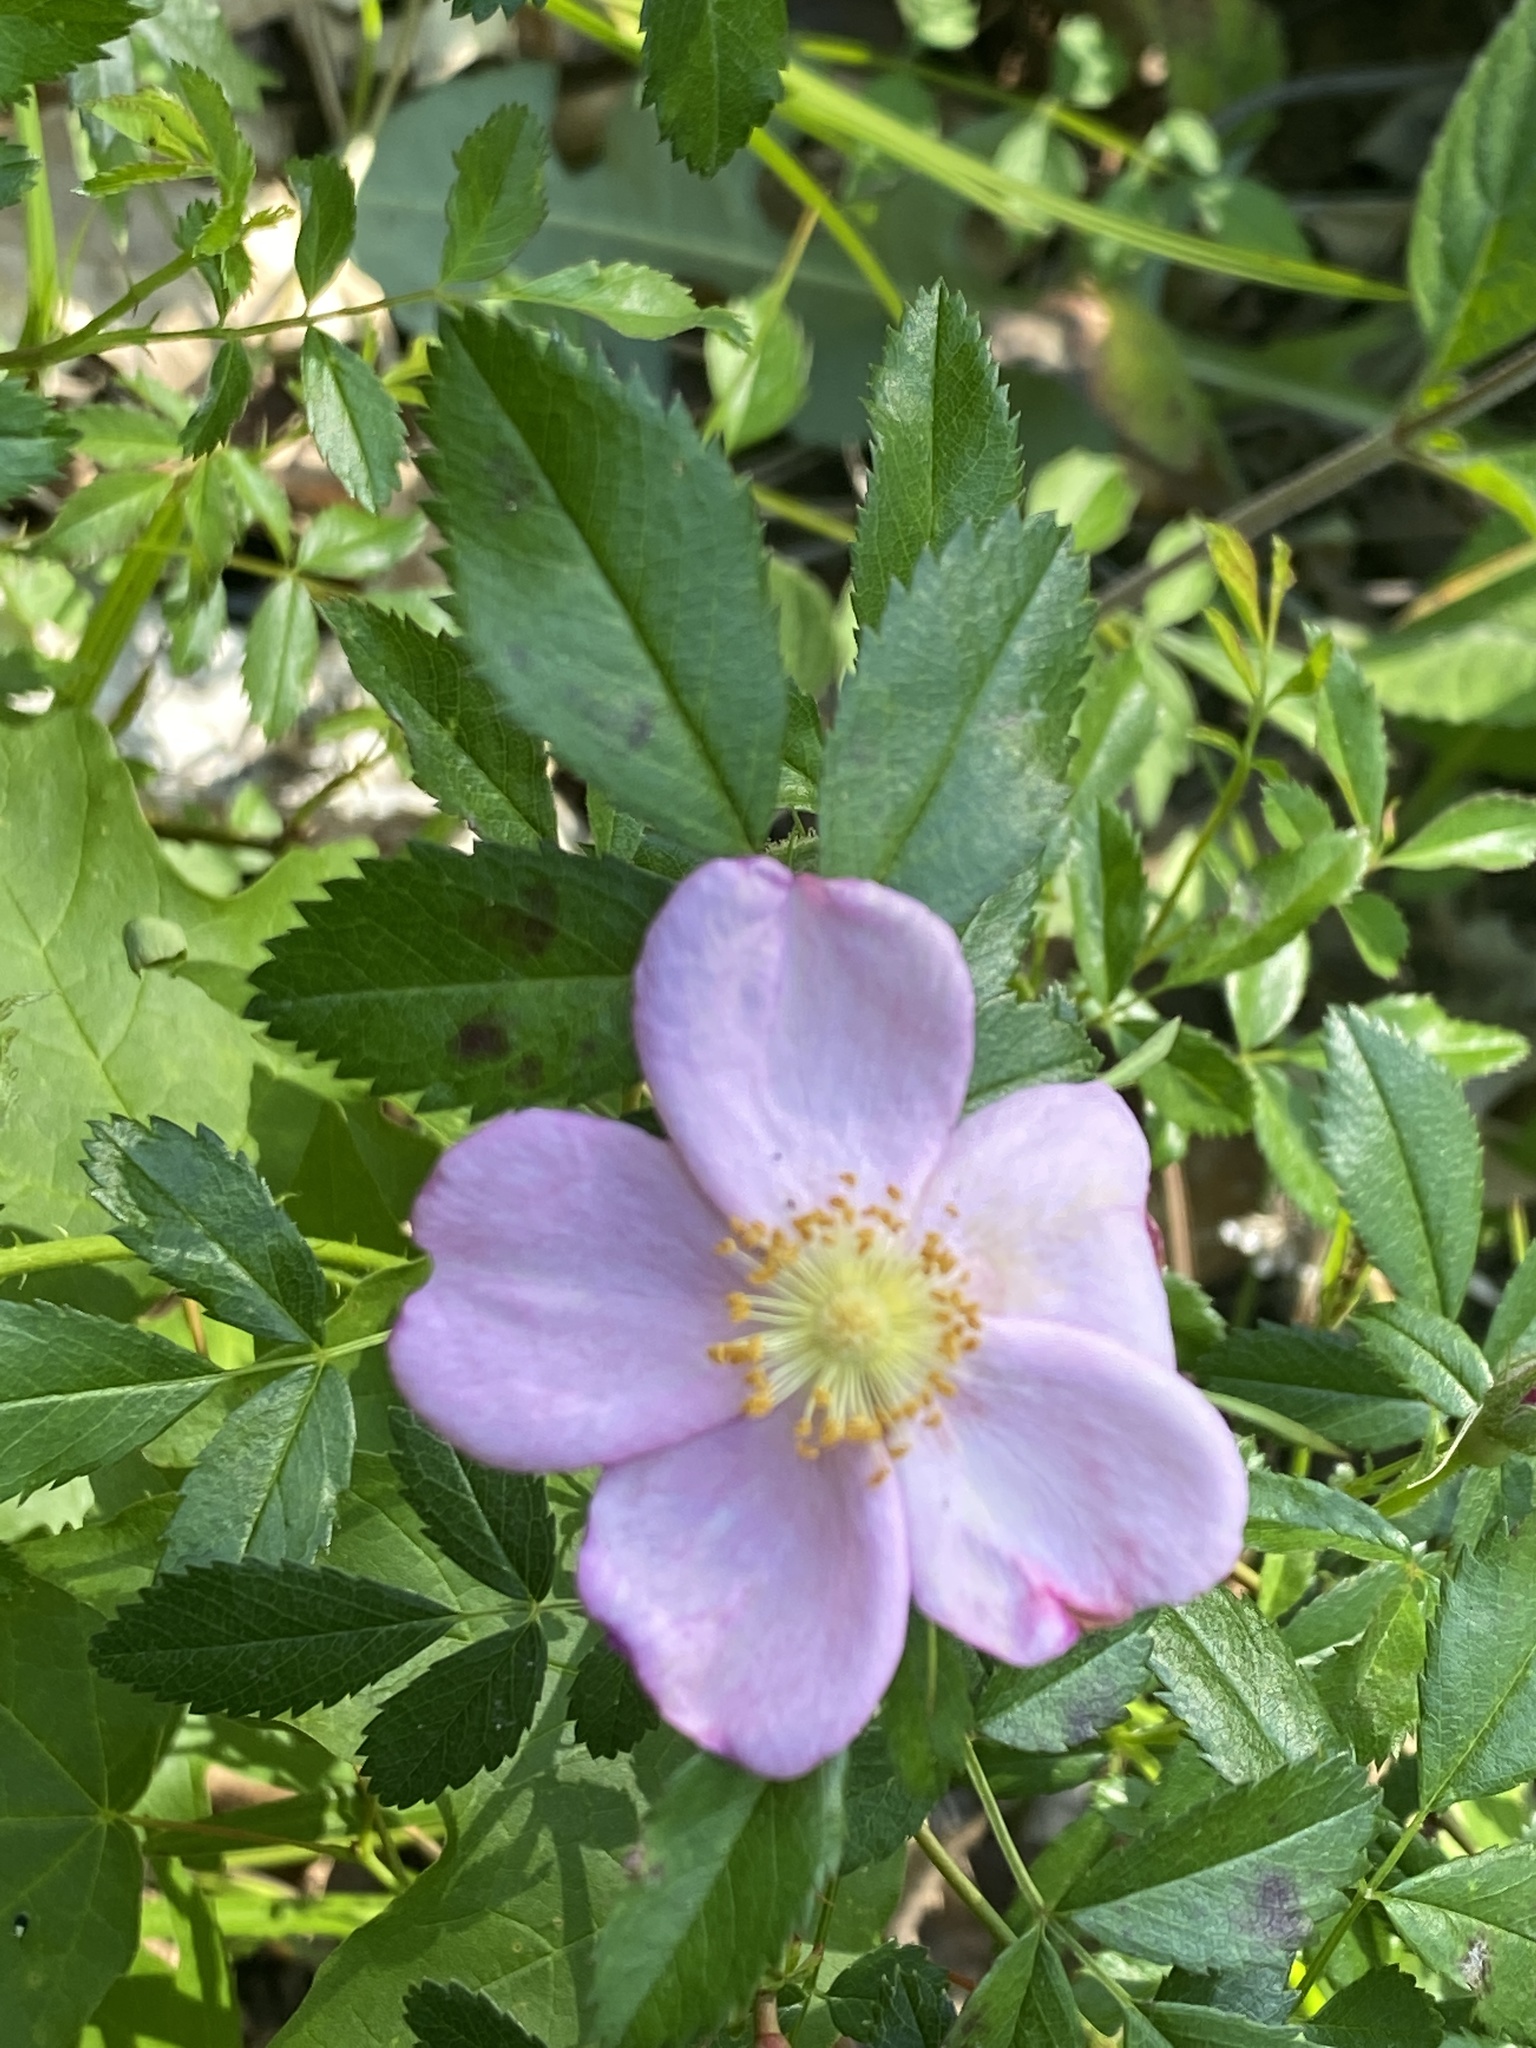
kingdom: Plantae
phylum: Tracheophyta
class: Magnoliopsida
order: Rosales
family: Rosaceae
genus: Rosa
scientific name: Rosa carolina
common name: Pasture rose
